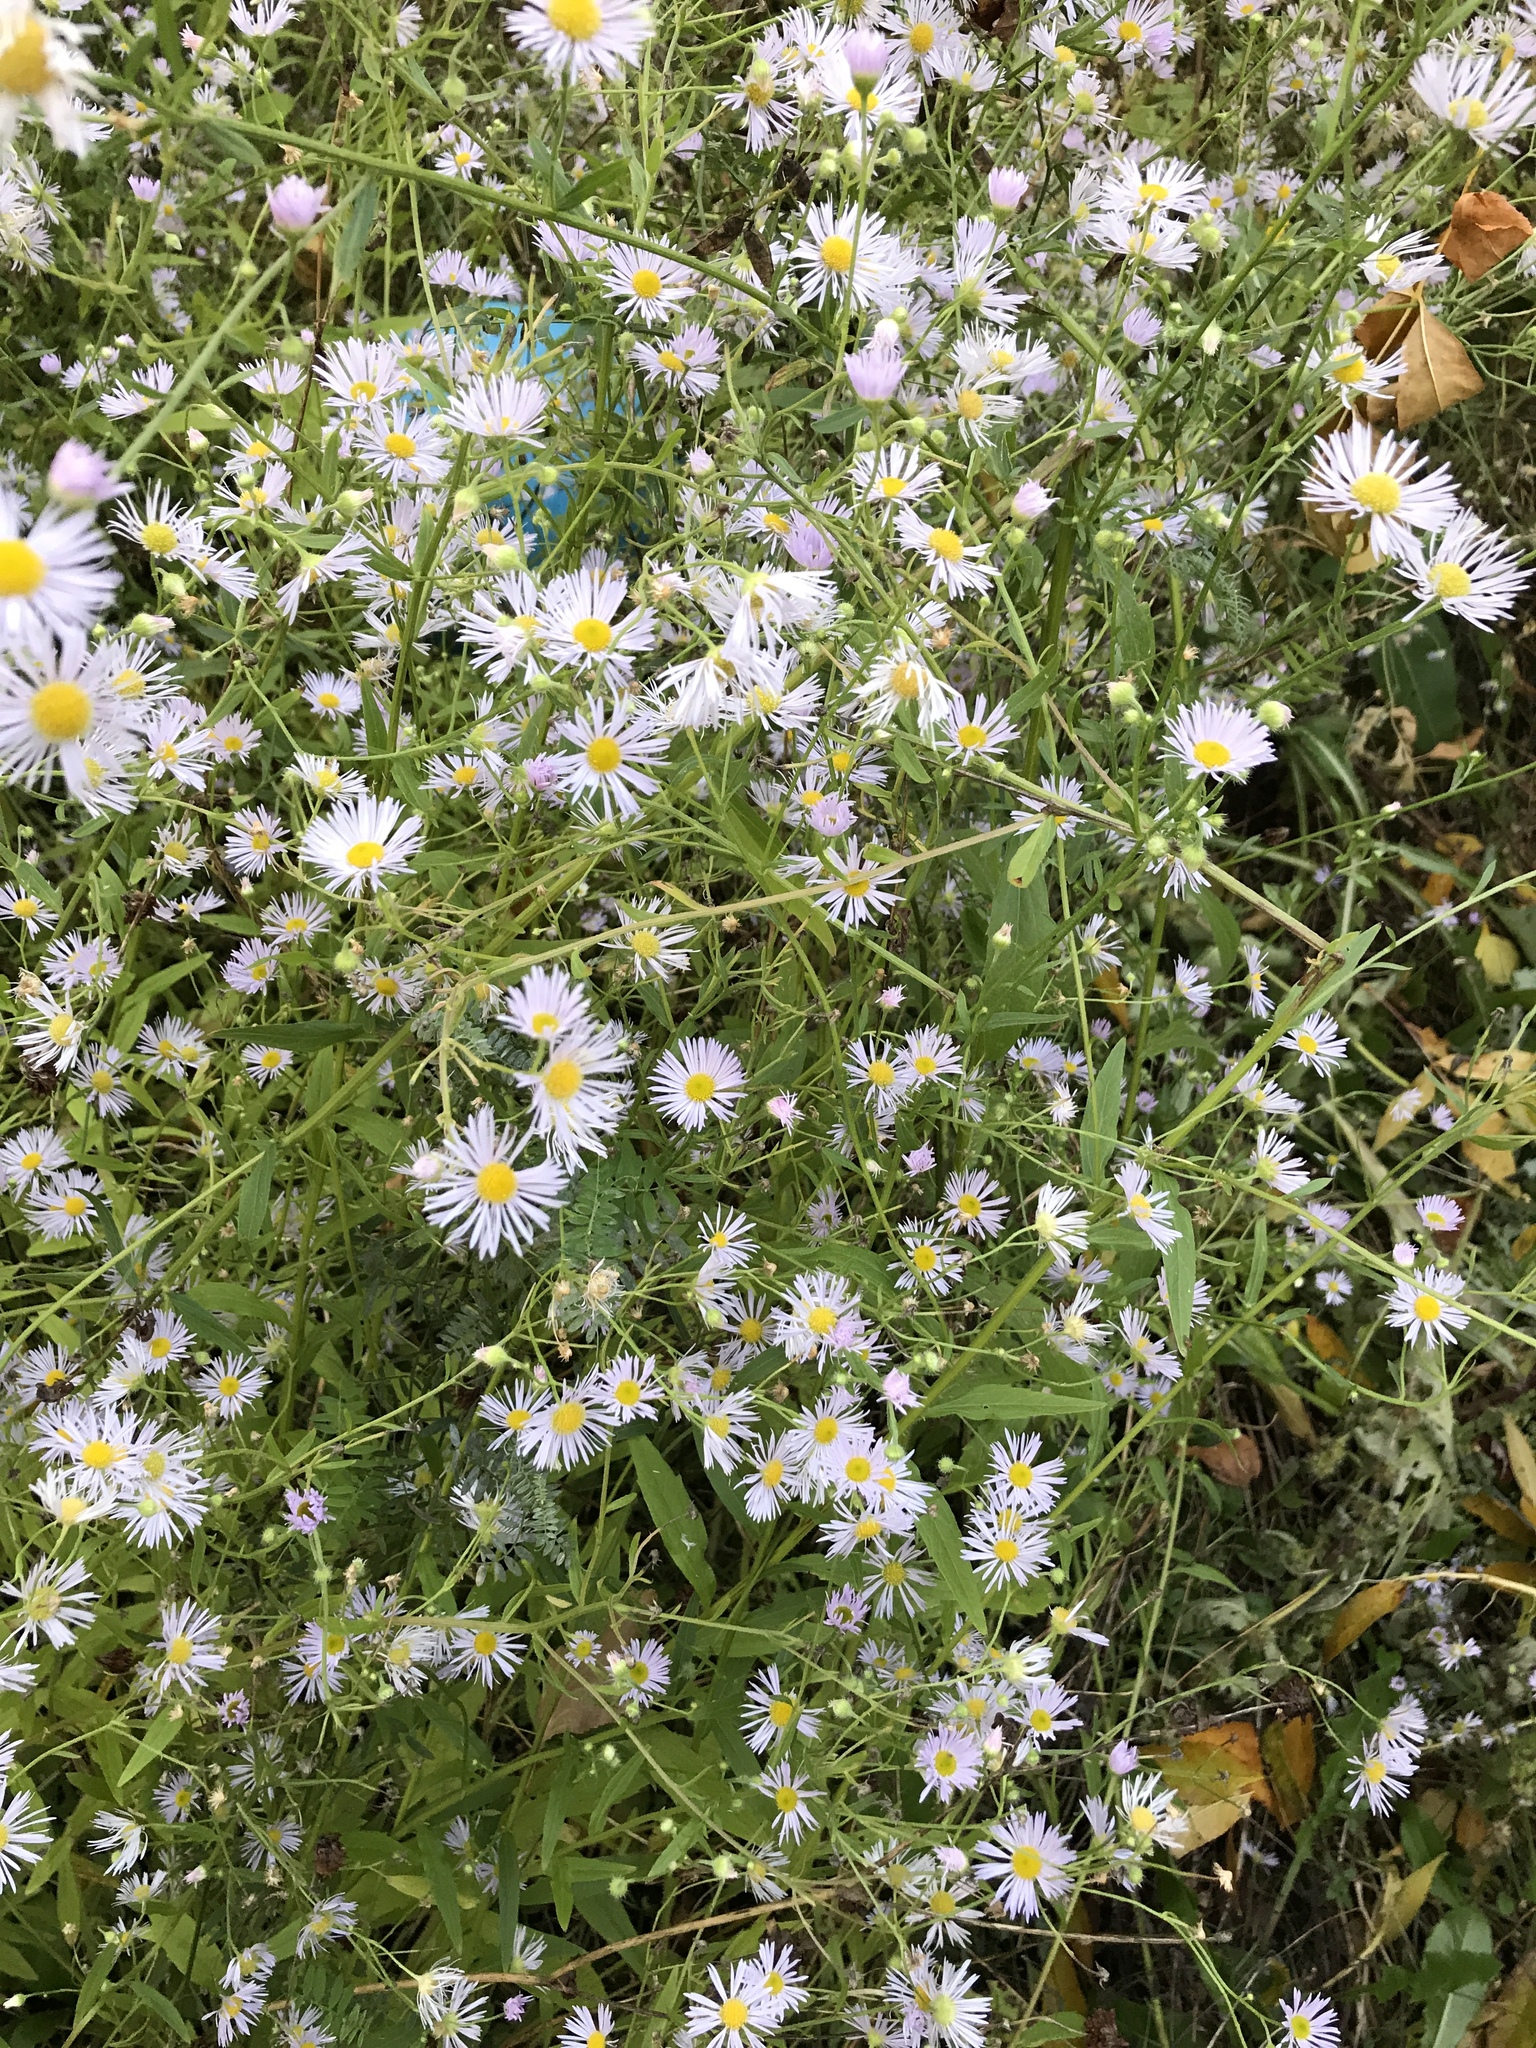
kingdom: Plantae
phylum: Tracheophyta
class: Magnoliopsida
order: Asterales
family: Asteraceae
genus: Erigeron
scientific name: Erigeron strigosus
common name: Common eastern fleabane
